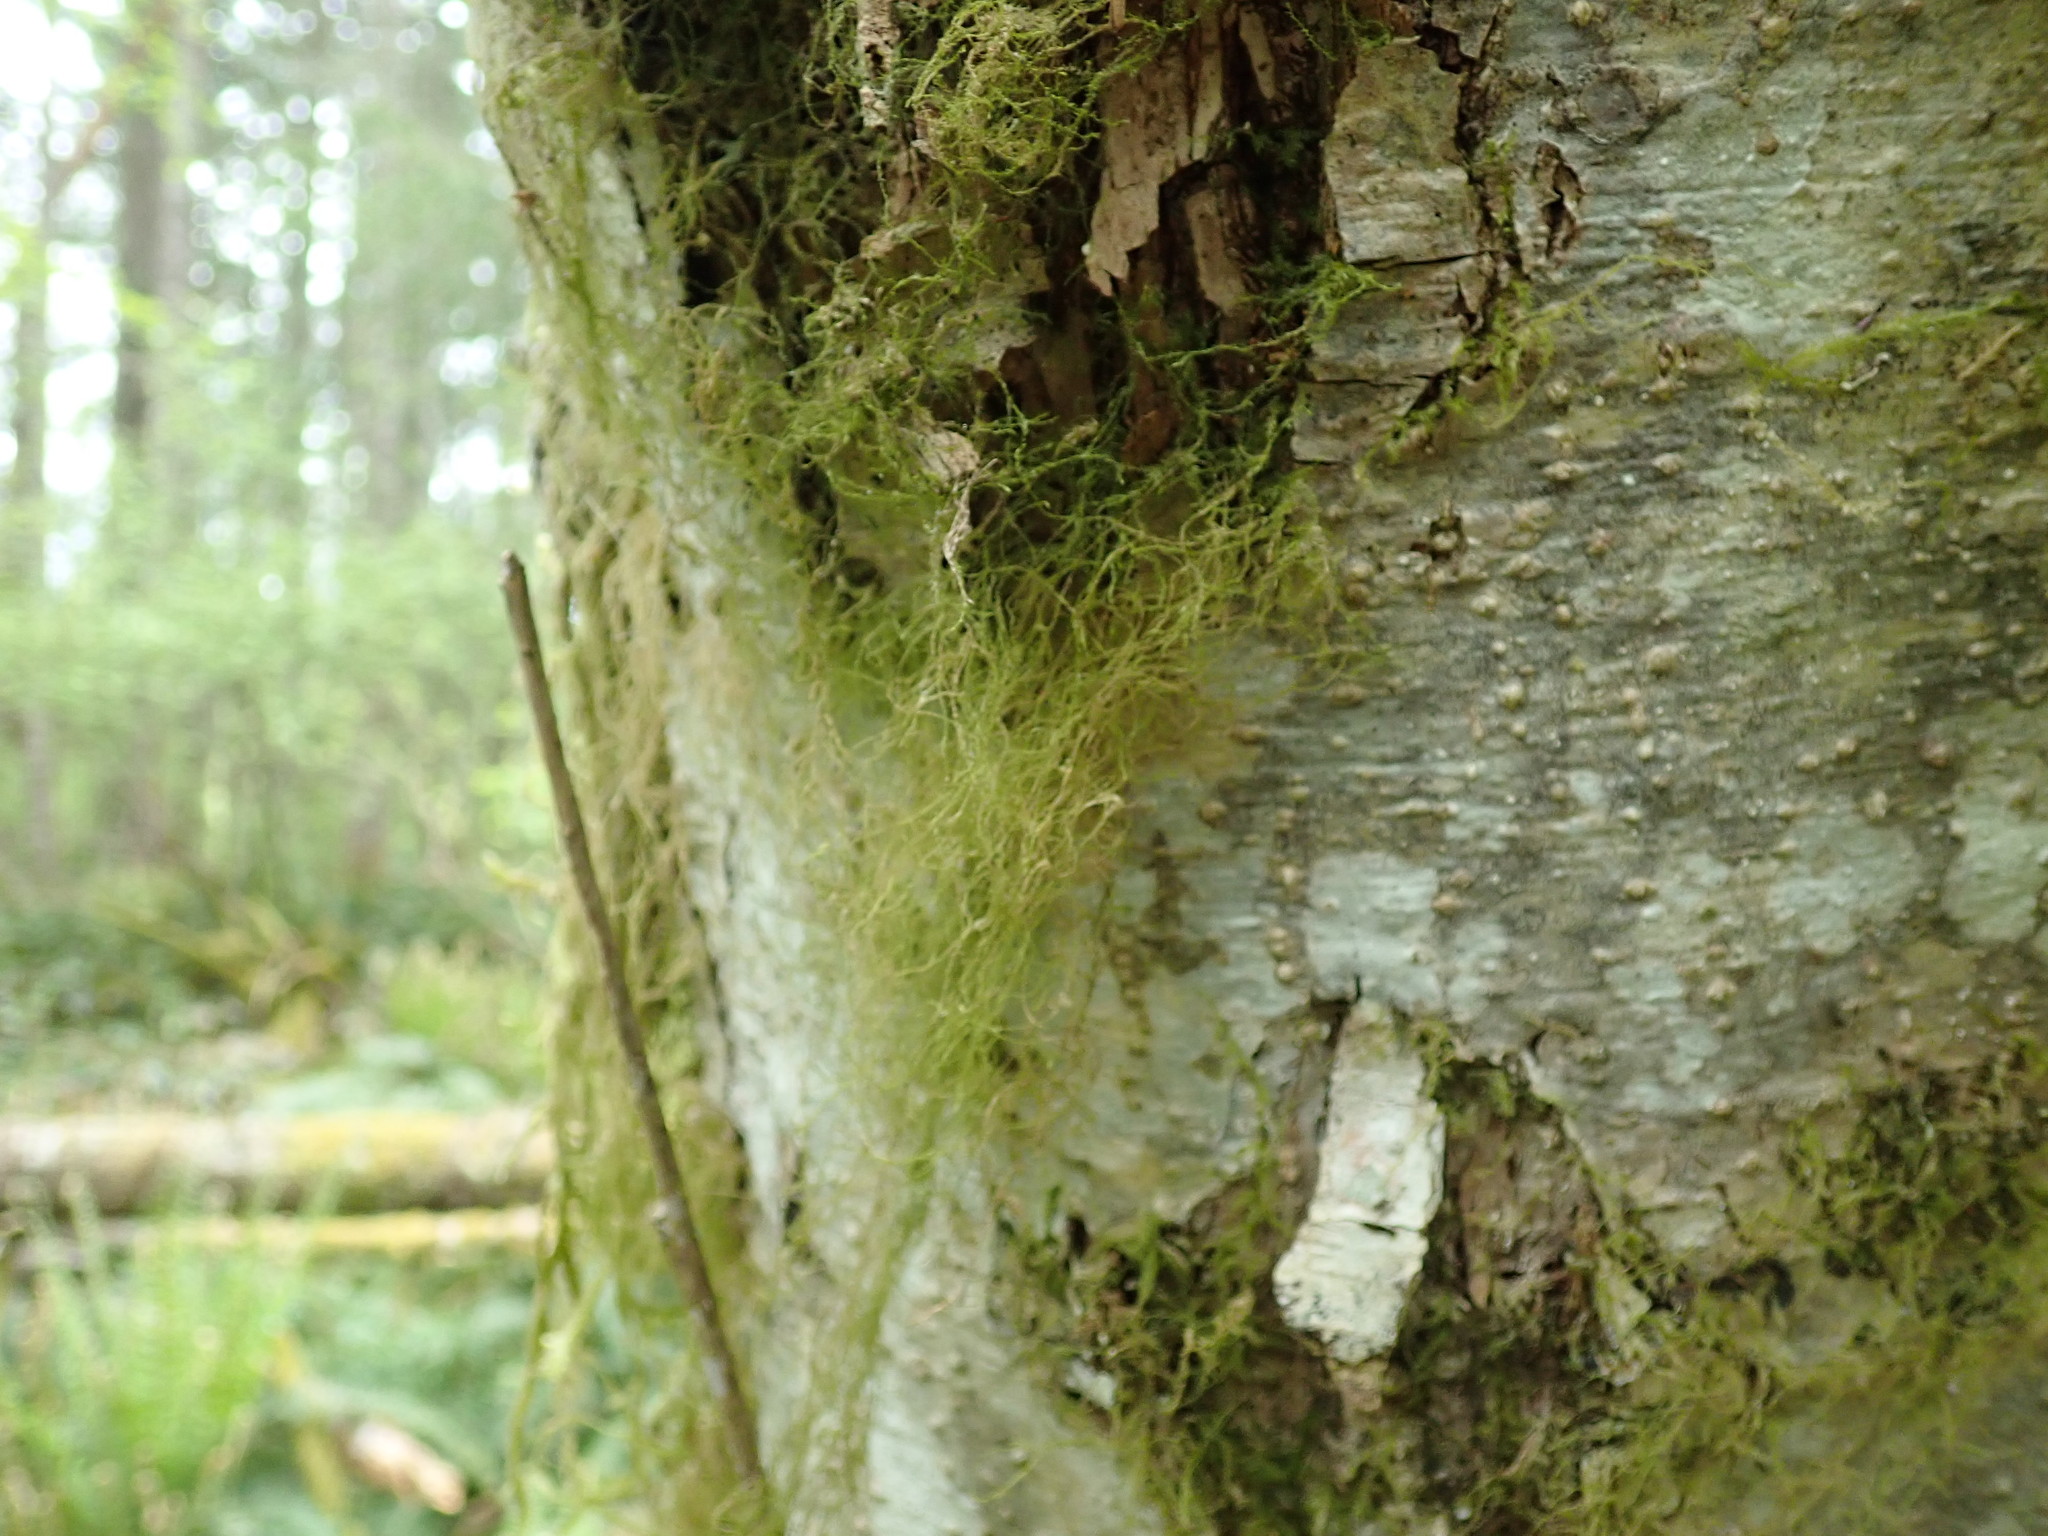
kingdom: Plantae
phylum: Bryophyta
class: Bryopsida
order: Hypnales
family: Lembophyllaceae
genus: Pseudisothecium
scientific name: Pseudisothecium stoloniferum
